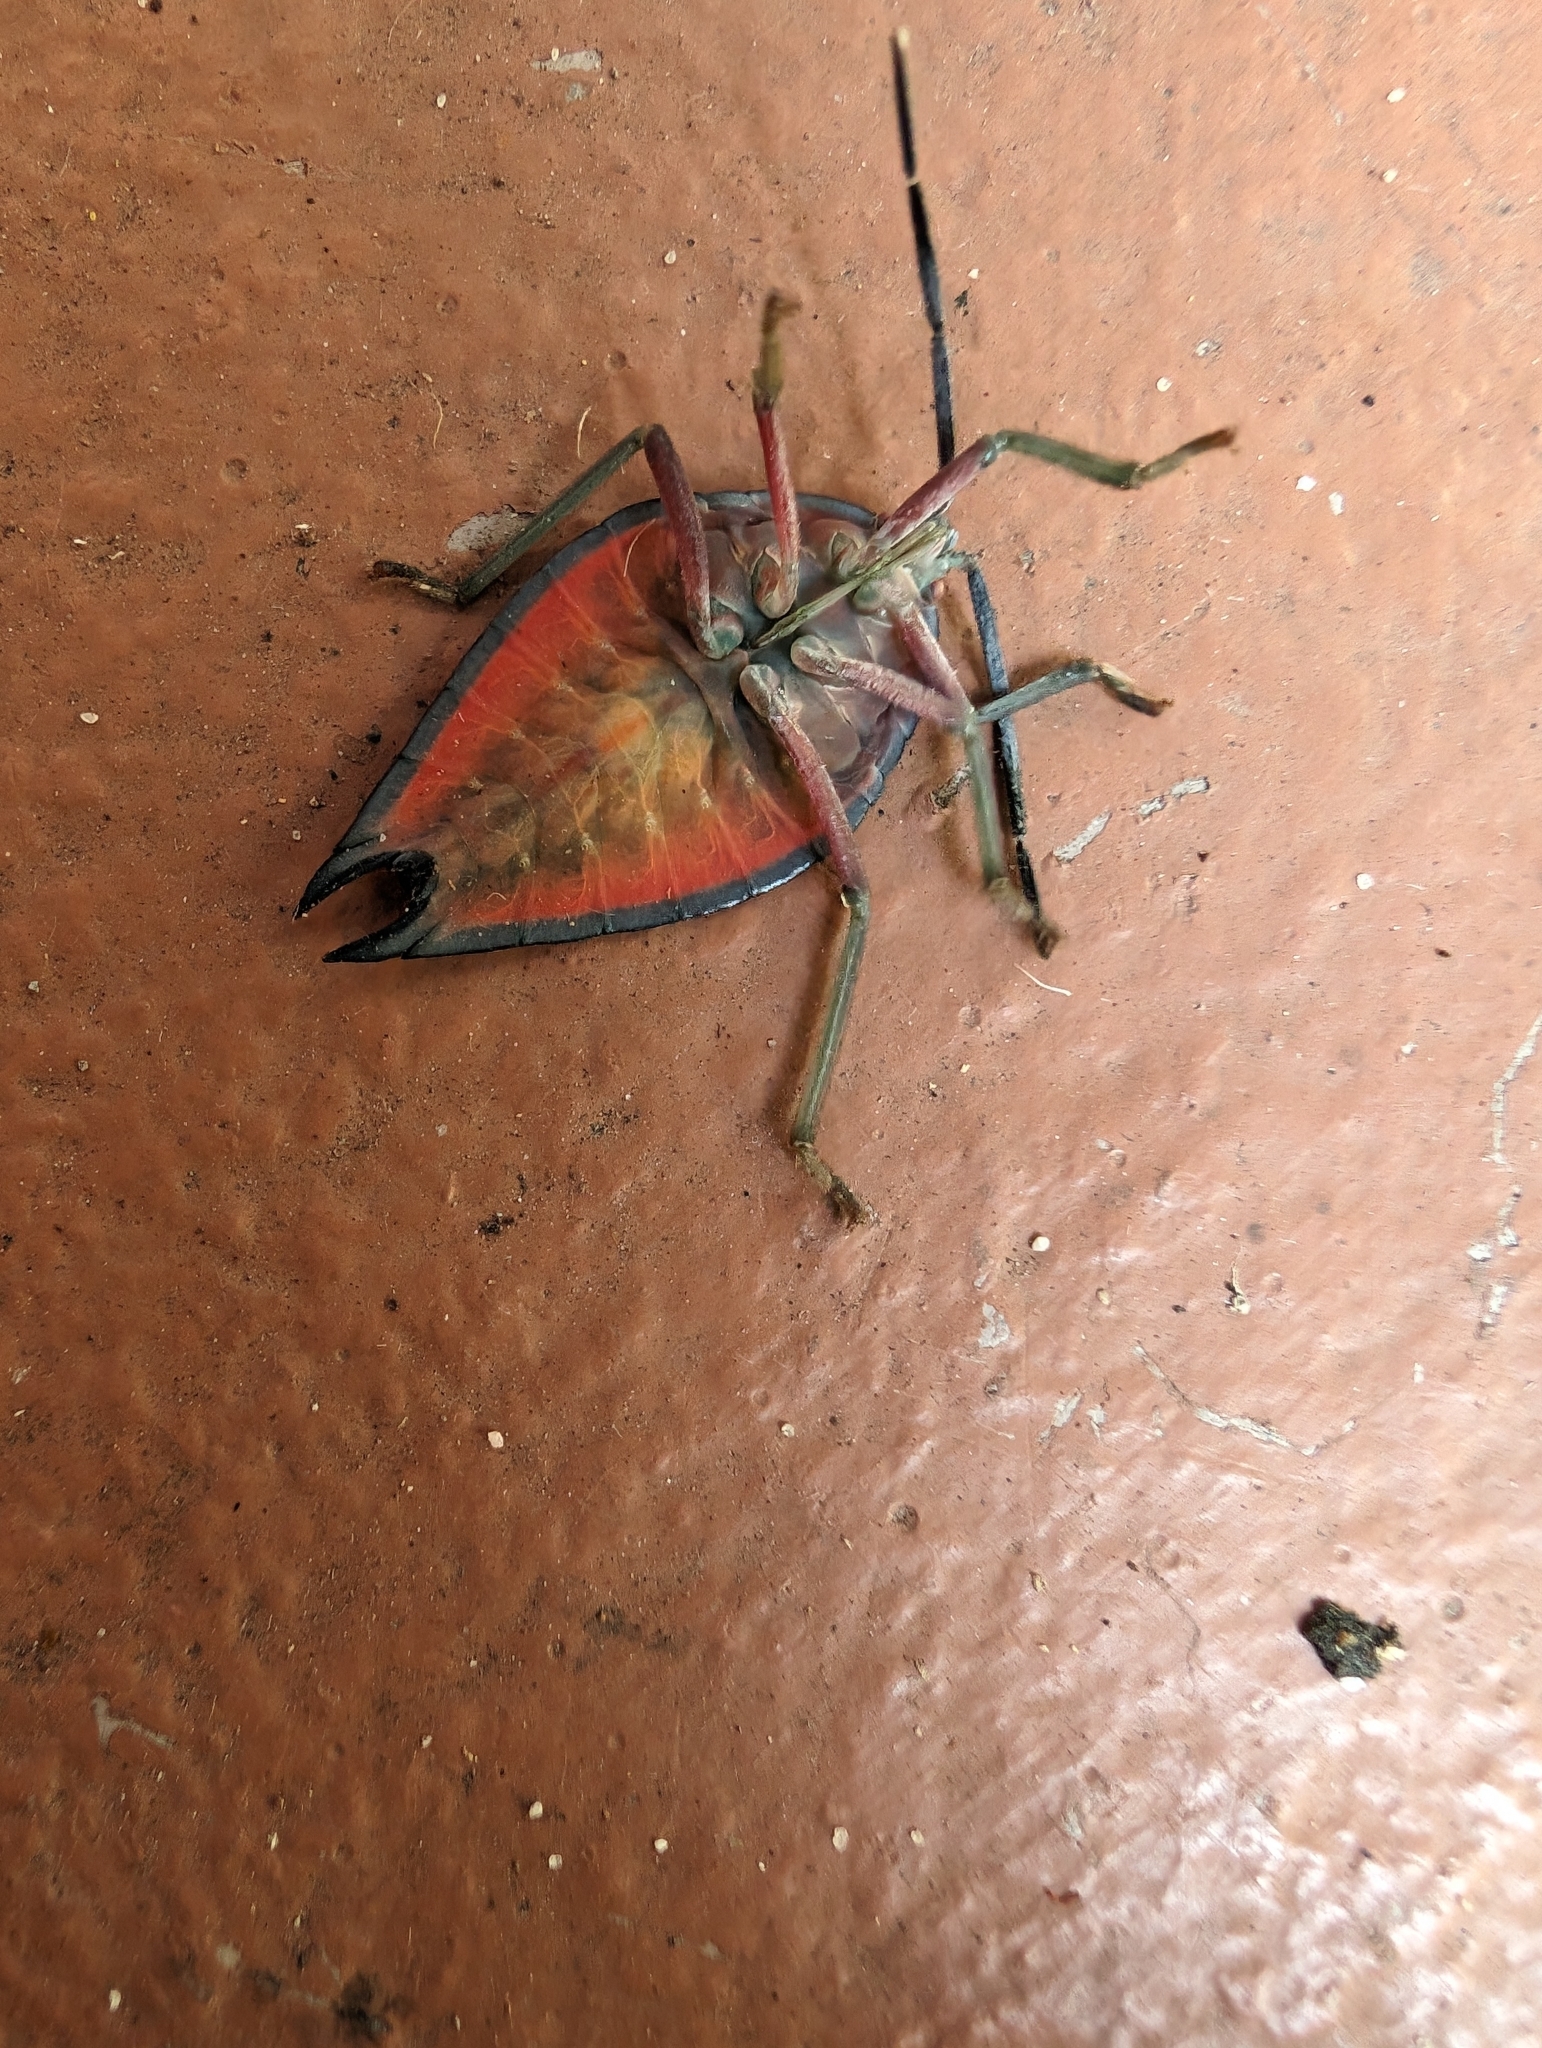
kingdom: Animalia
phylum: Arthropoda
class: Insecta
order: Hemiptera
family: Tessaratomidae
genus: Lyramorpha
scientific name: Lyramorpha rosea
